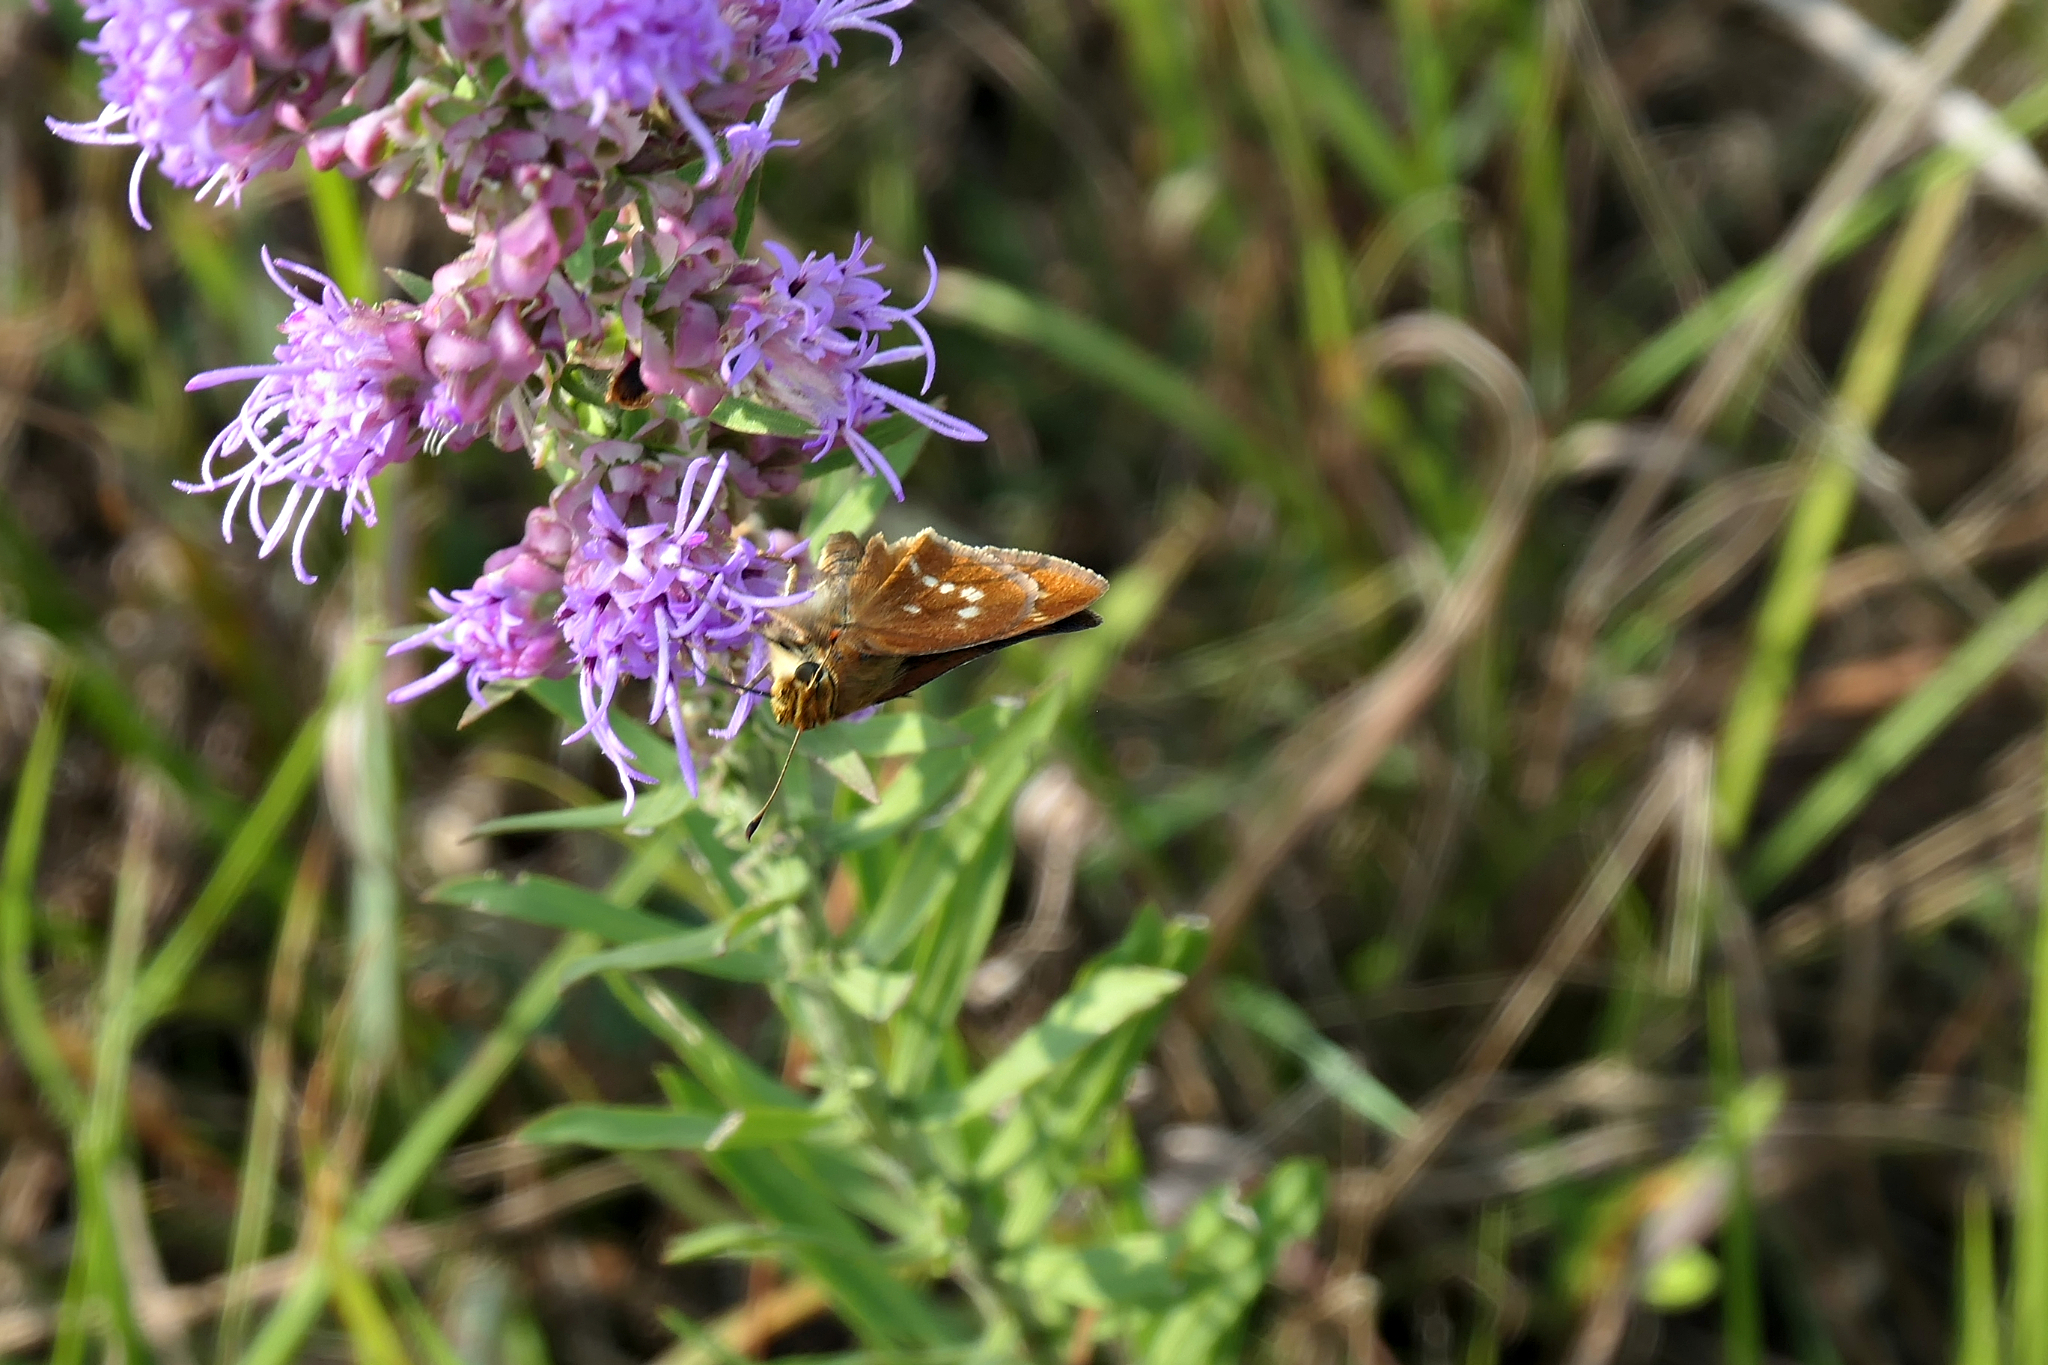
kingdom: Animalia
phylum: Arthropoda
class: Insecta
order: Lepidoptera
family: Hesperiidae
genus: Hesperia
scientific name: Hesperia leonardus
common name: Leonard's skipper
